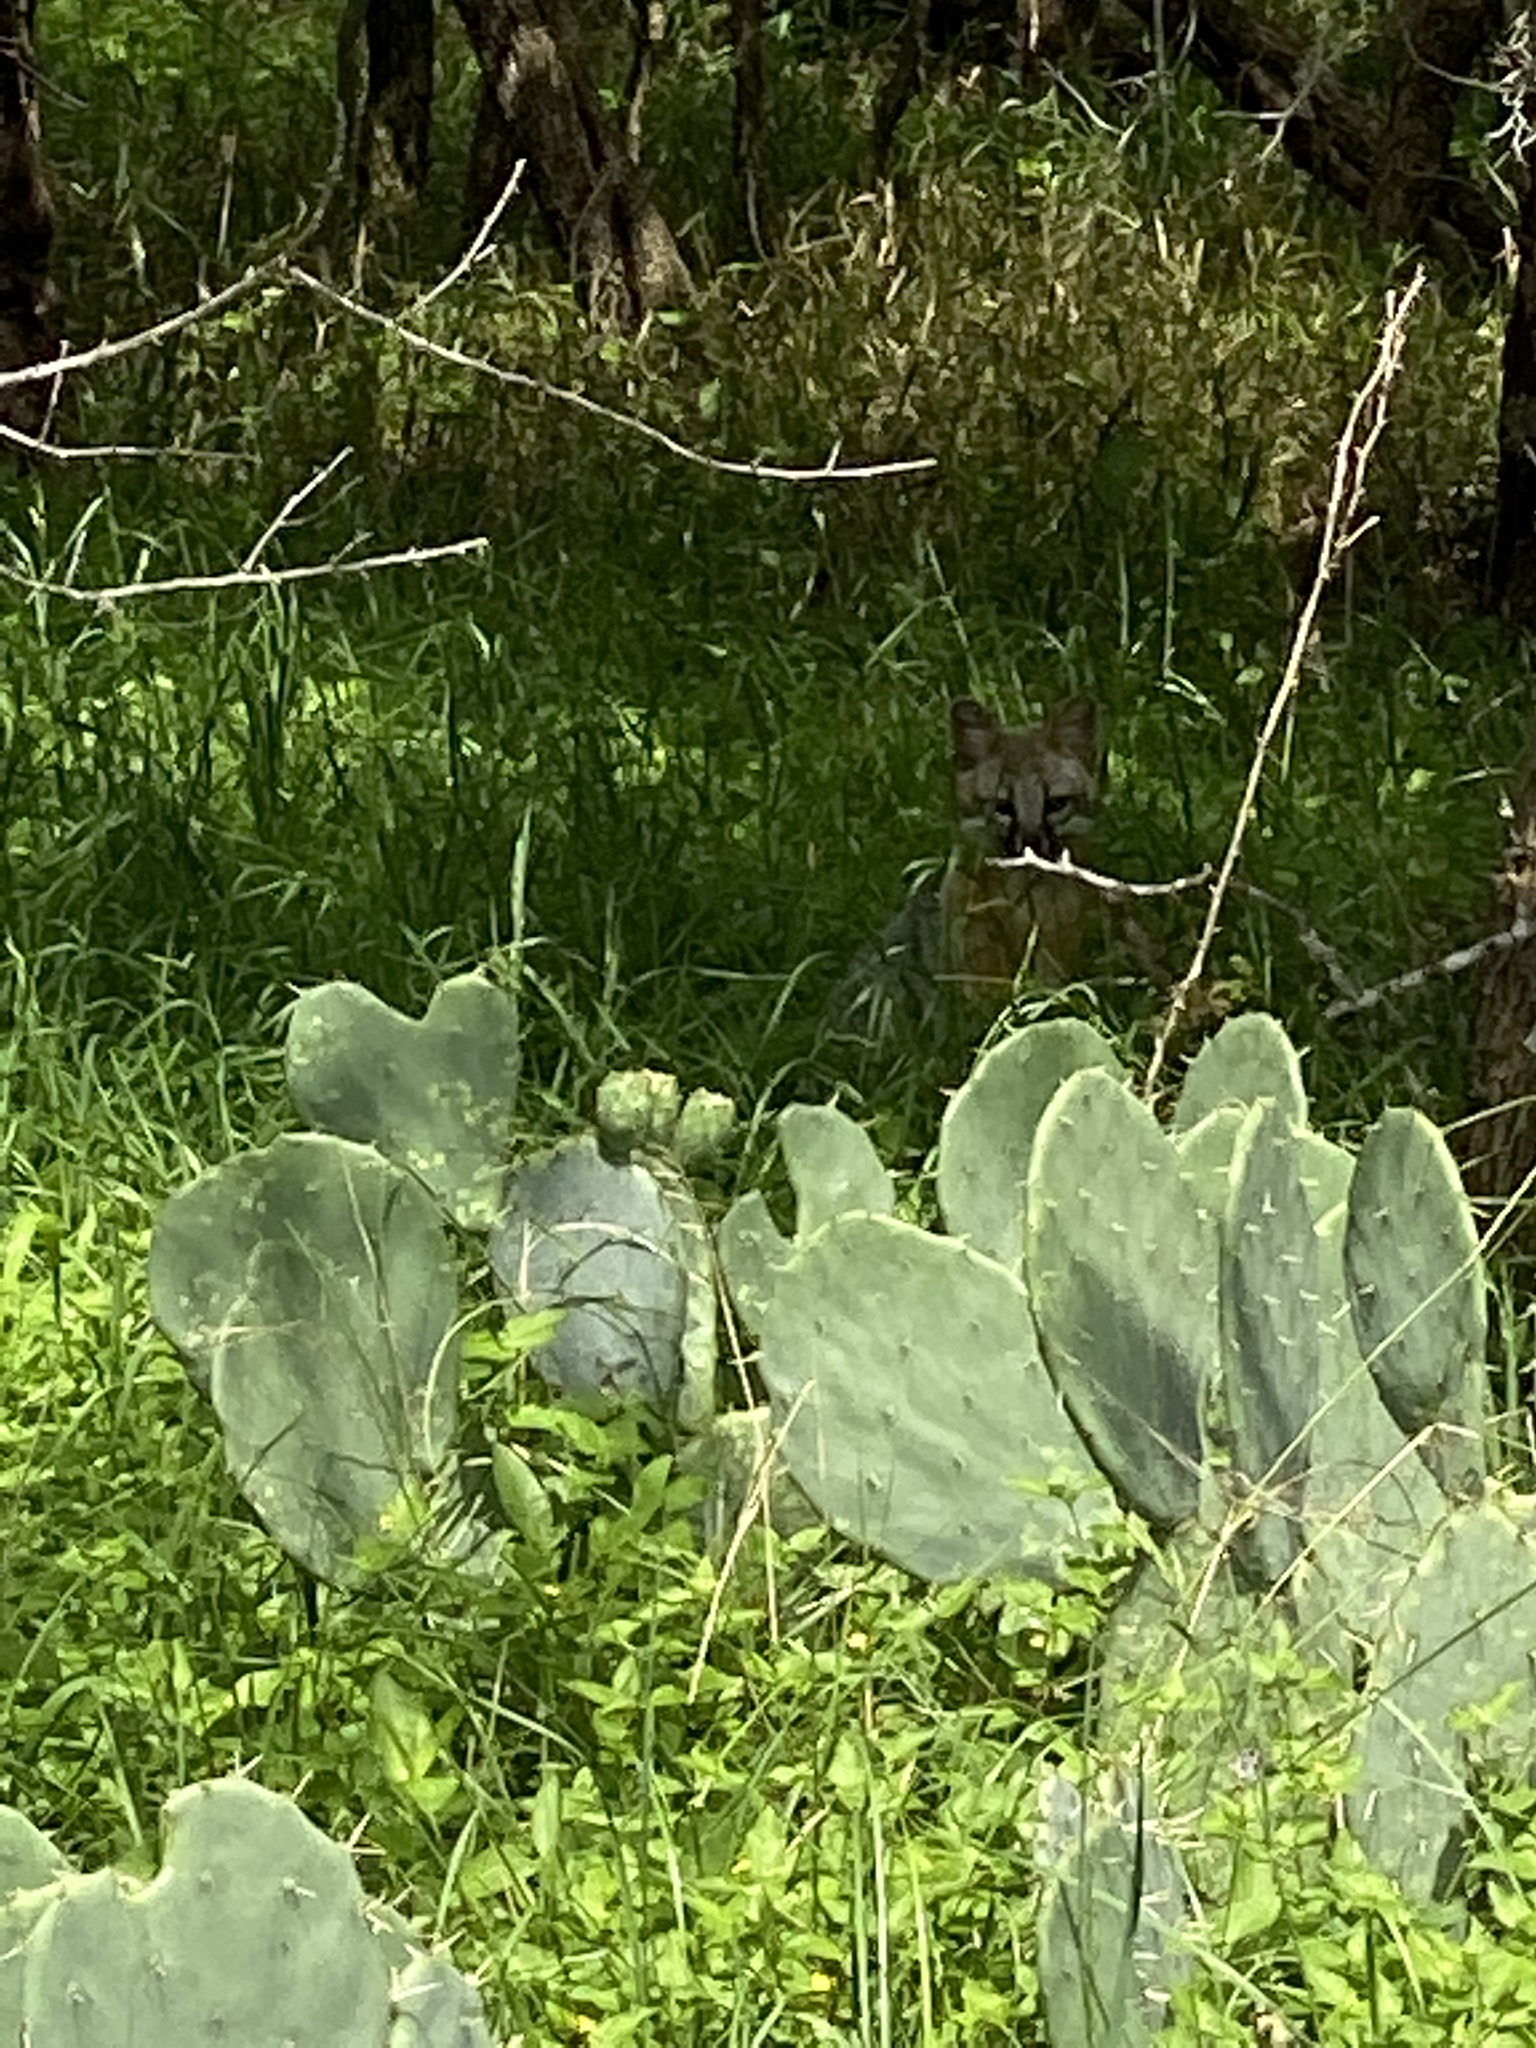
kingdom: Animalia
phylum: Chordata
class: Mammalia
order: Carnivora
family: Canidae
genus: Urocyon
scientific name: Urocyon cinereoargenteus
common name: Gray fox
